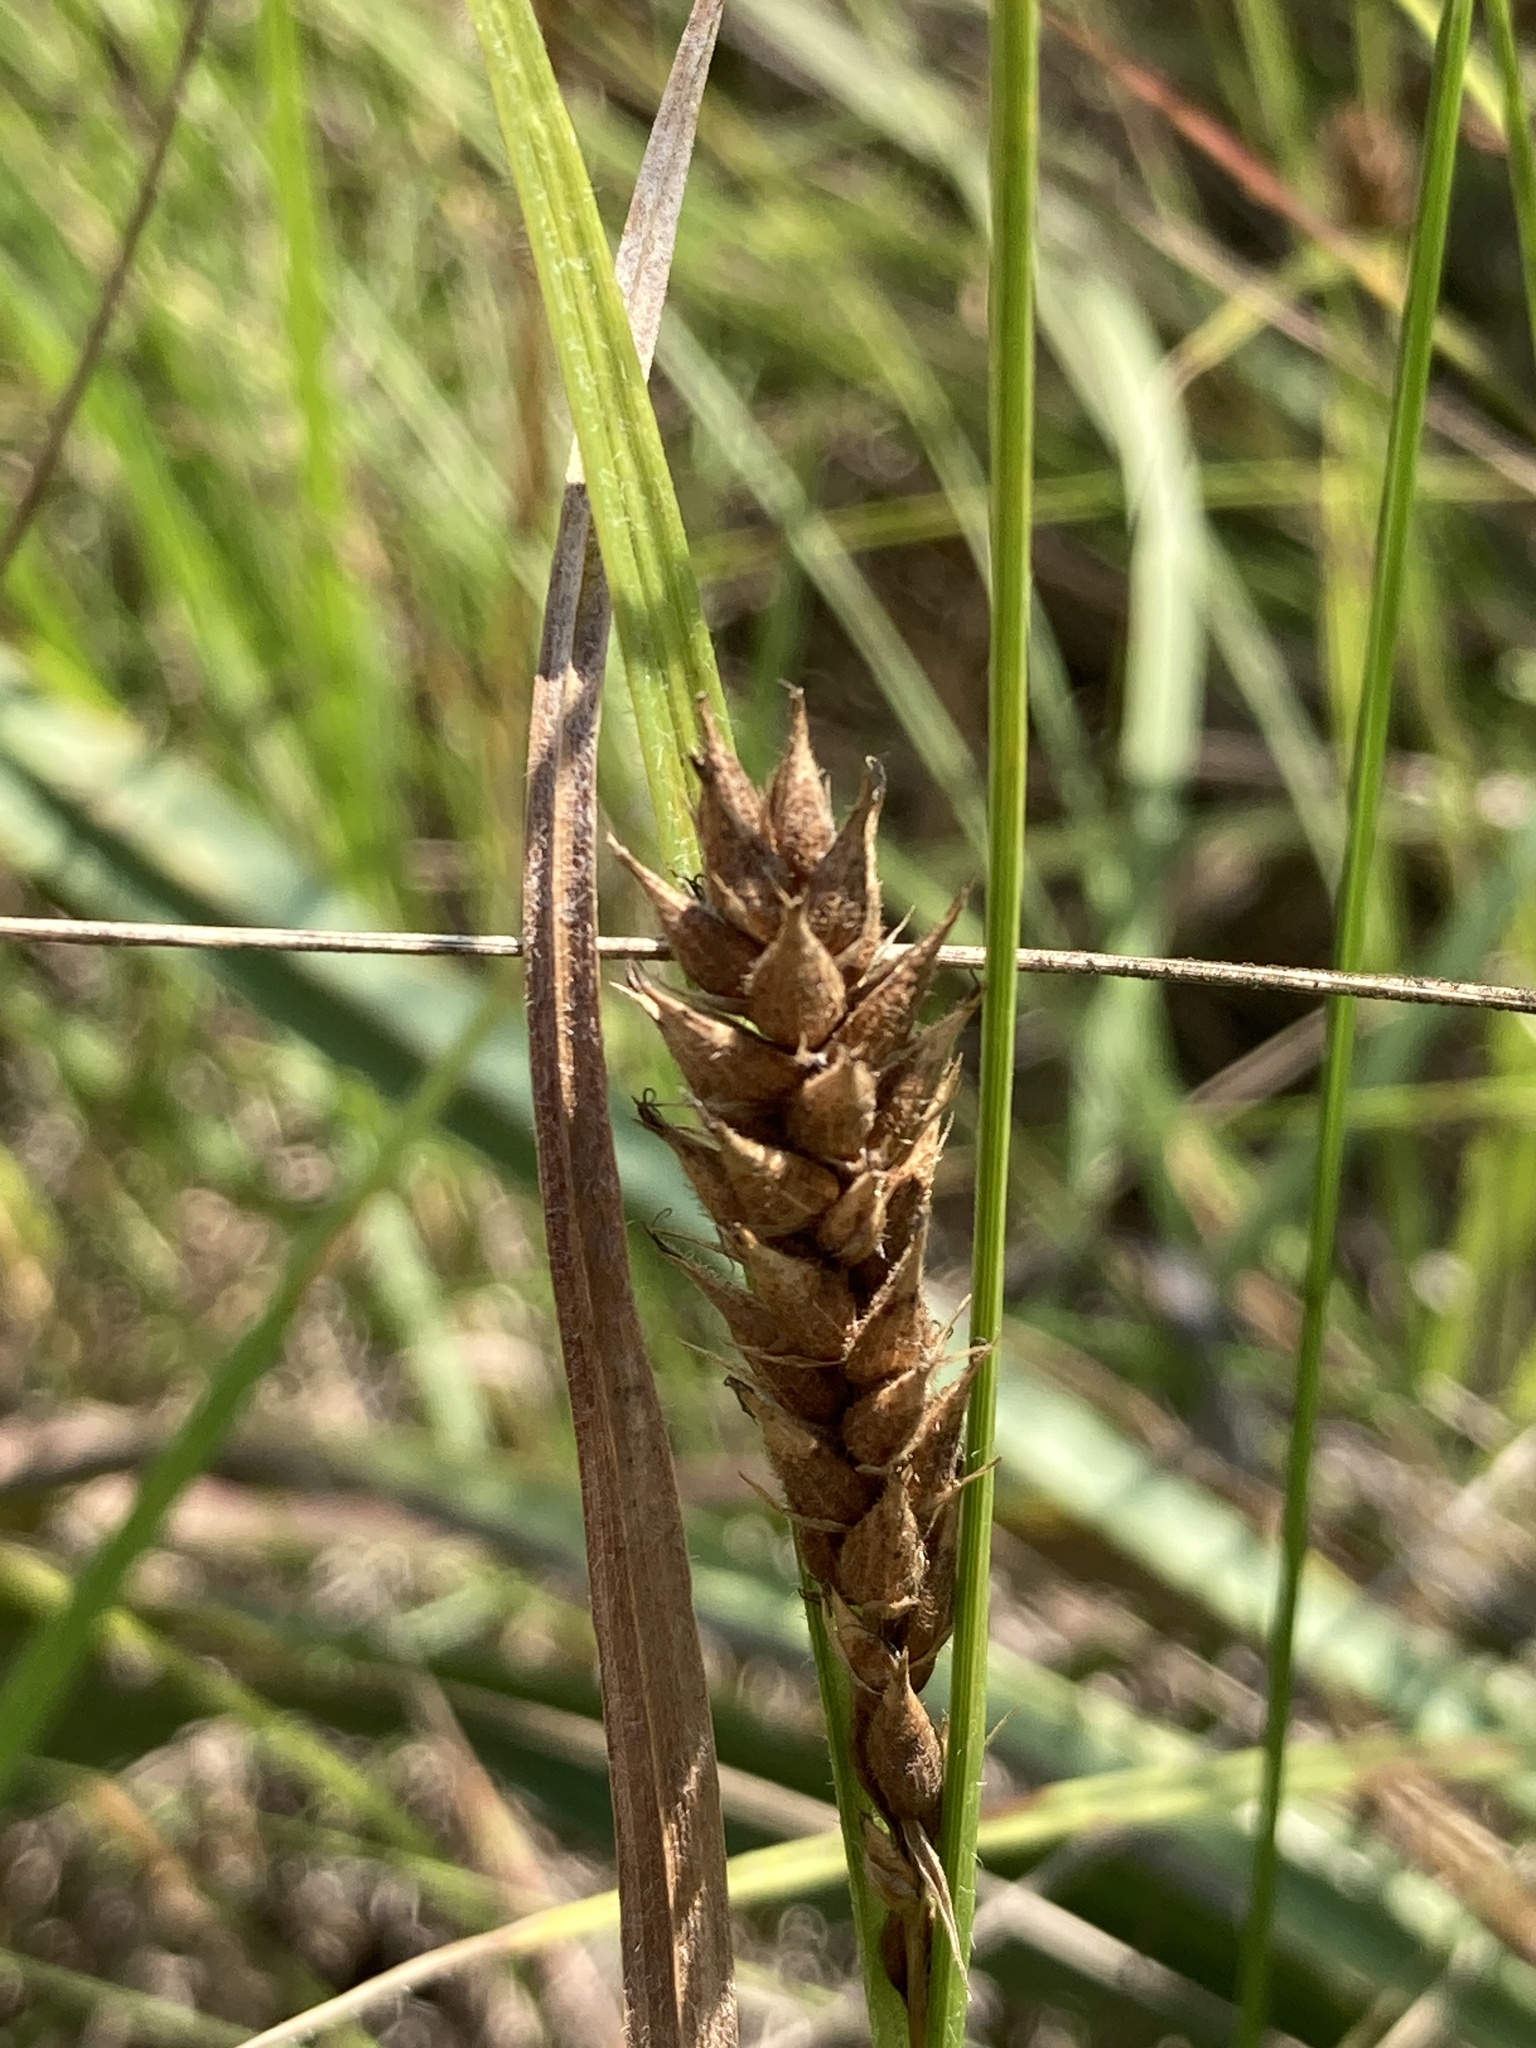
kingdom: Plantae
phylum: Tracheophyta
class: Liliopsida
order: Poales
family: Cyperaceae
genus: Carex
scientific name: Carex hirta
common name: Hairy sedge
